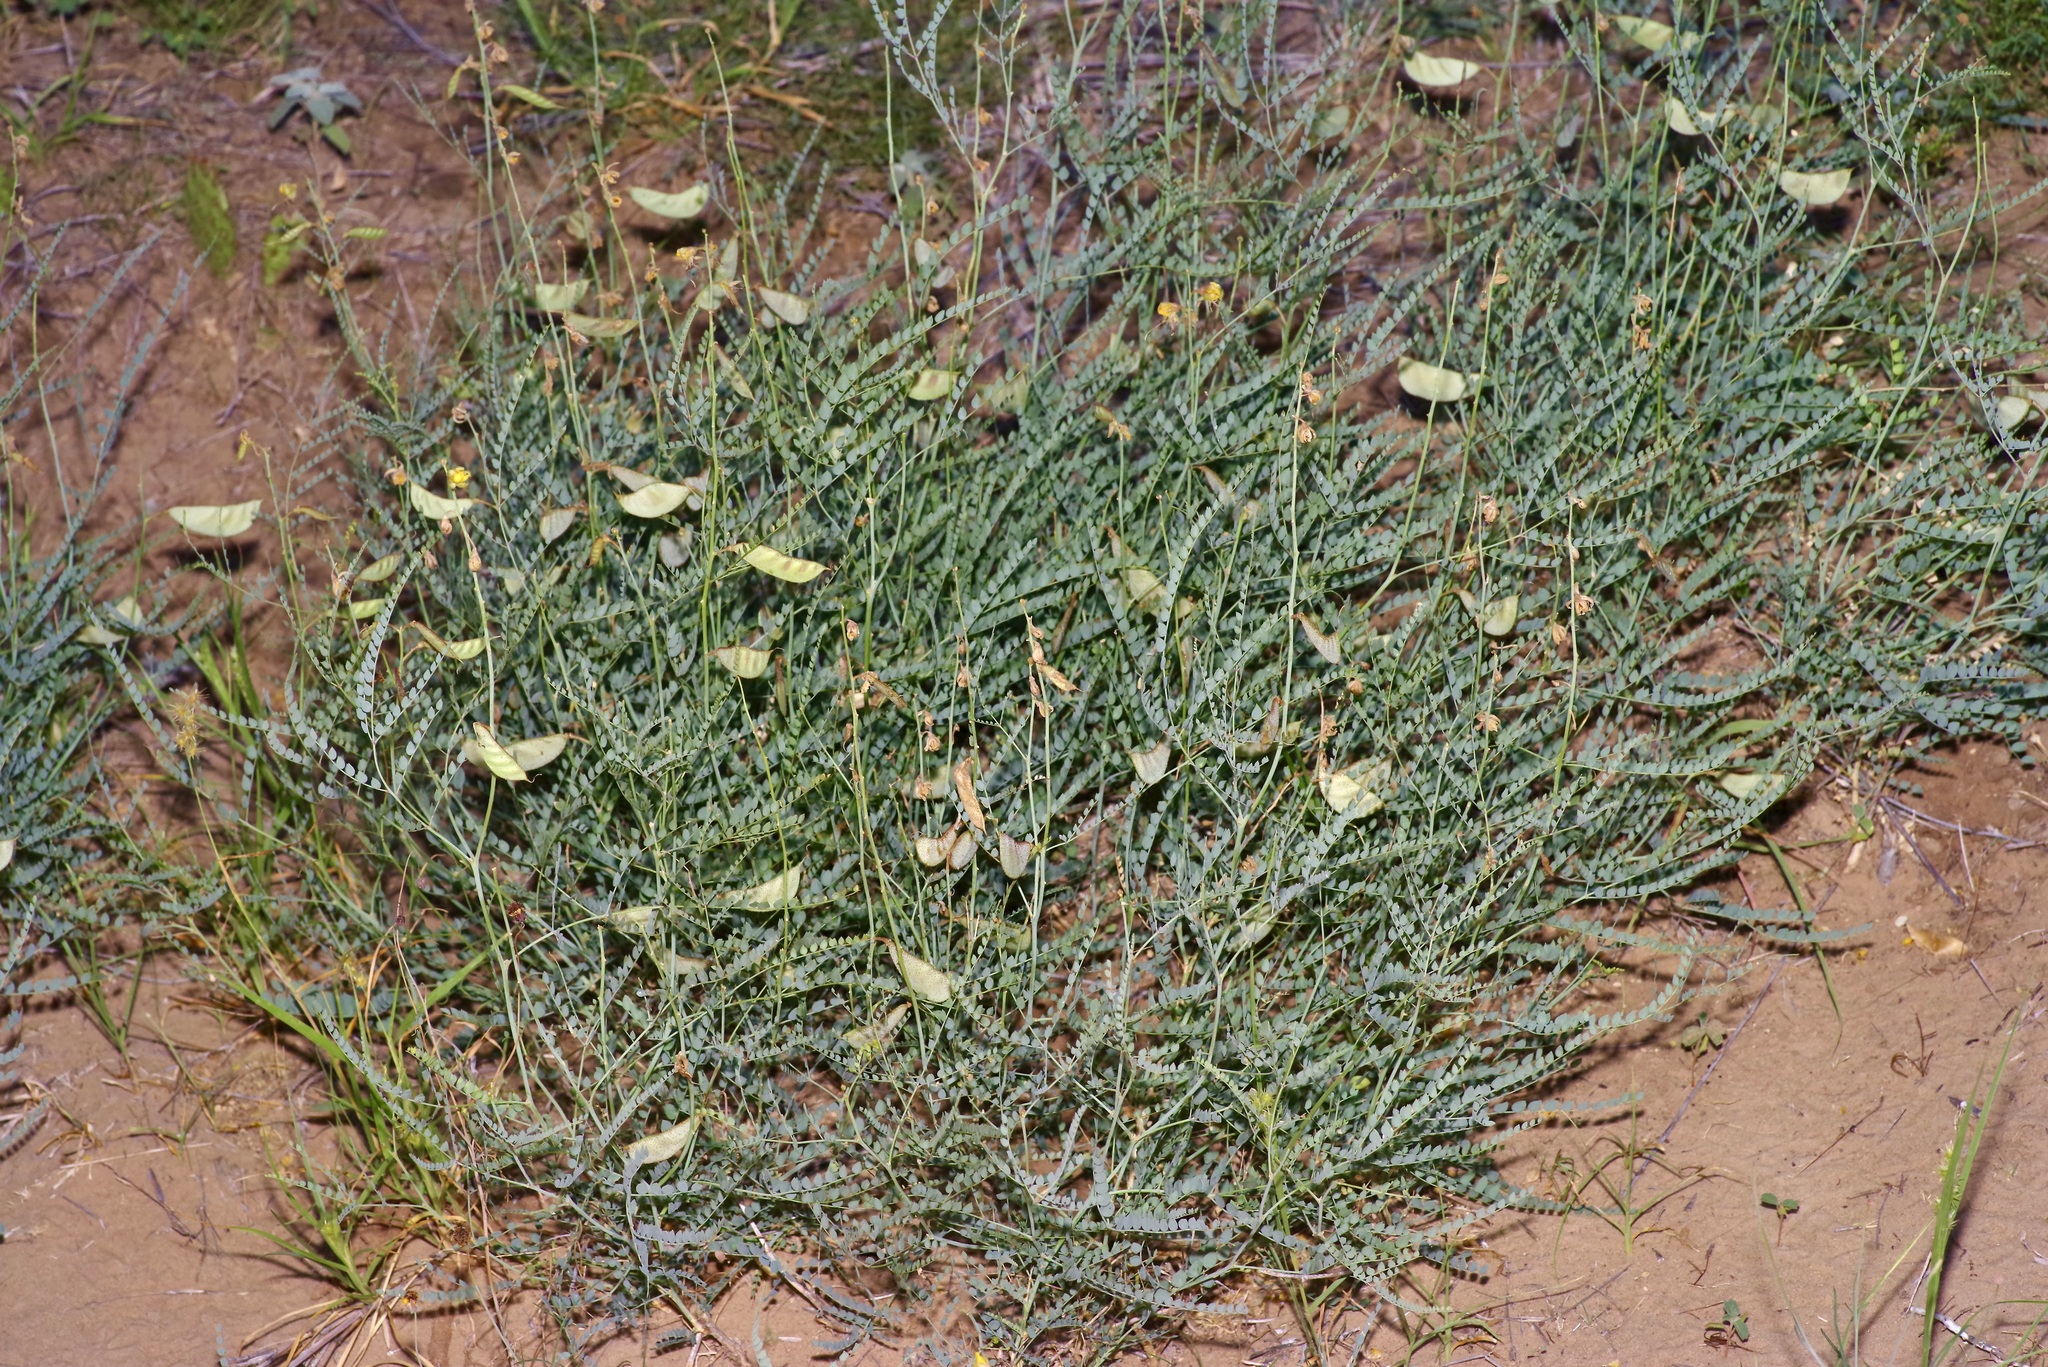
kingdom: Plantae
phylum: Tracheophyta
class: Magnoliopsida
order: Fabales
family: Fabaceae
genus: Erythrostemon
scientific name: Erythrostemon caudatus
